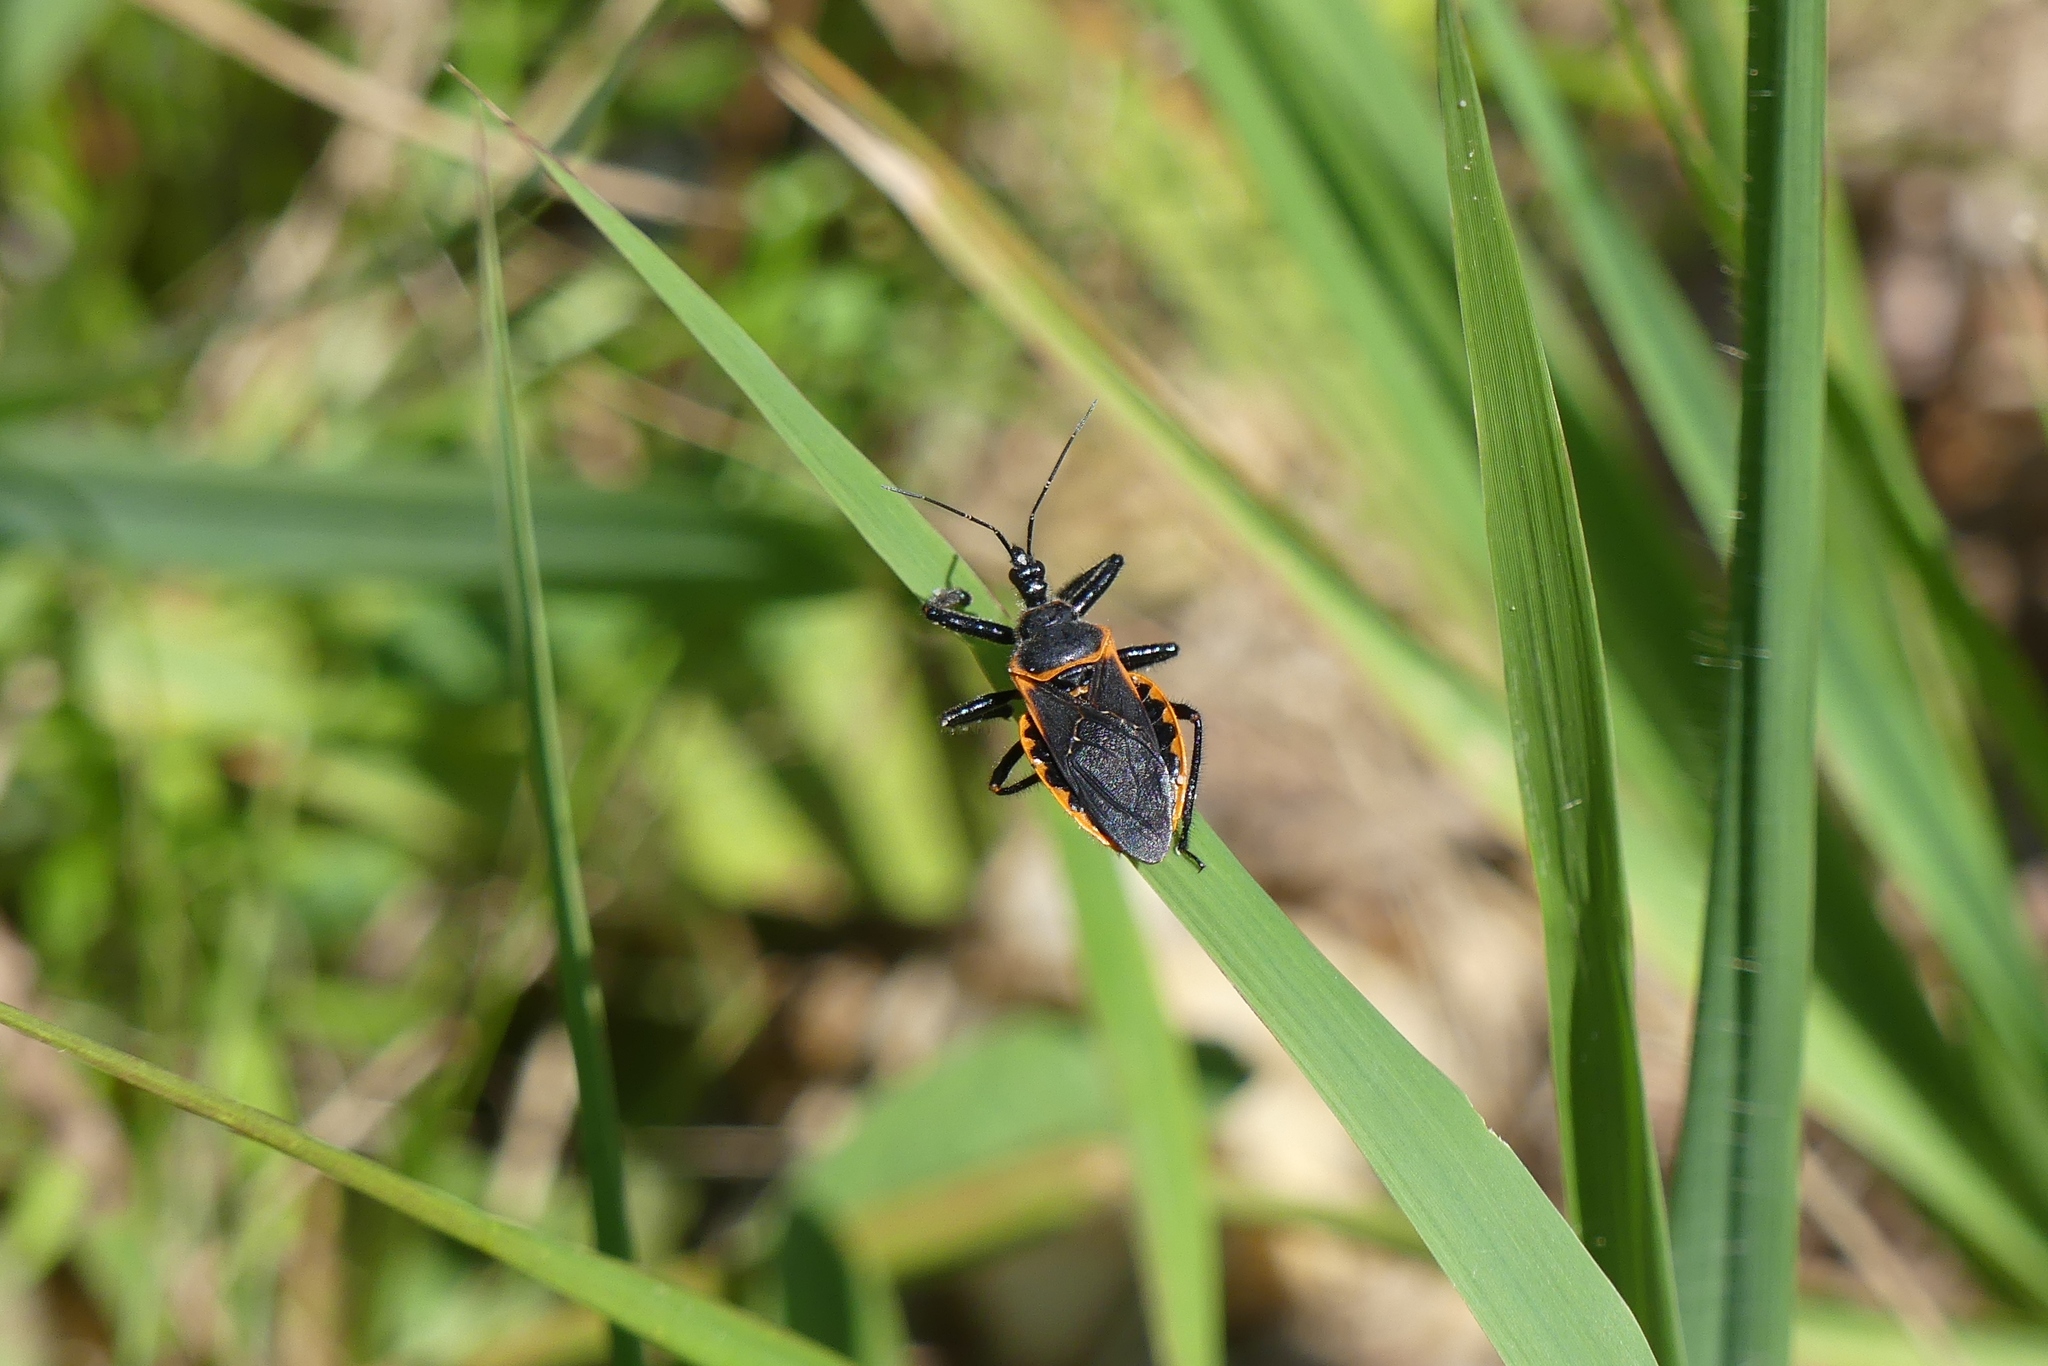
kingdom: Animalia
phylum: Arthropoda
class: Insecta
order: Hemiptera
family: Reduviidae
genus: Apiomerus
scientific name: Apiomerus crassipes
